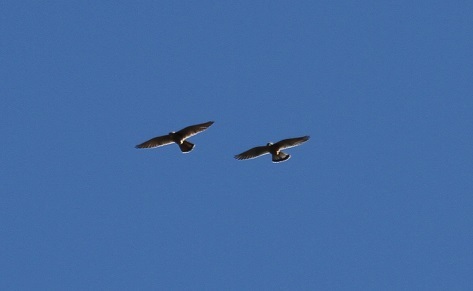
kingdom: Animalia
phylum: Chordata
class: Aves
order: Falconiformes
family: Falconidae
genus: Falco
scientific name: Falco tinnunculus
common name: Common kestrel
